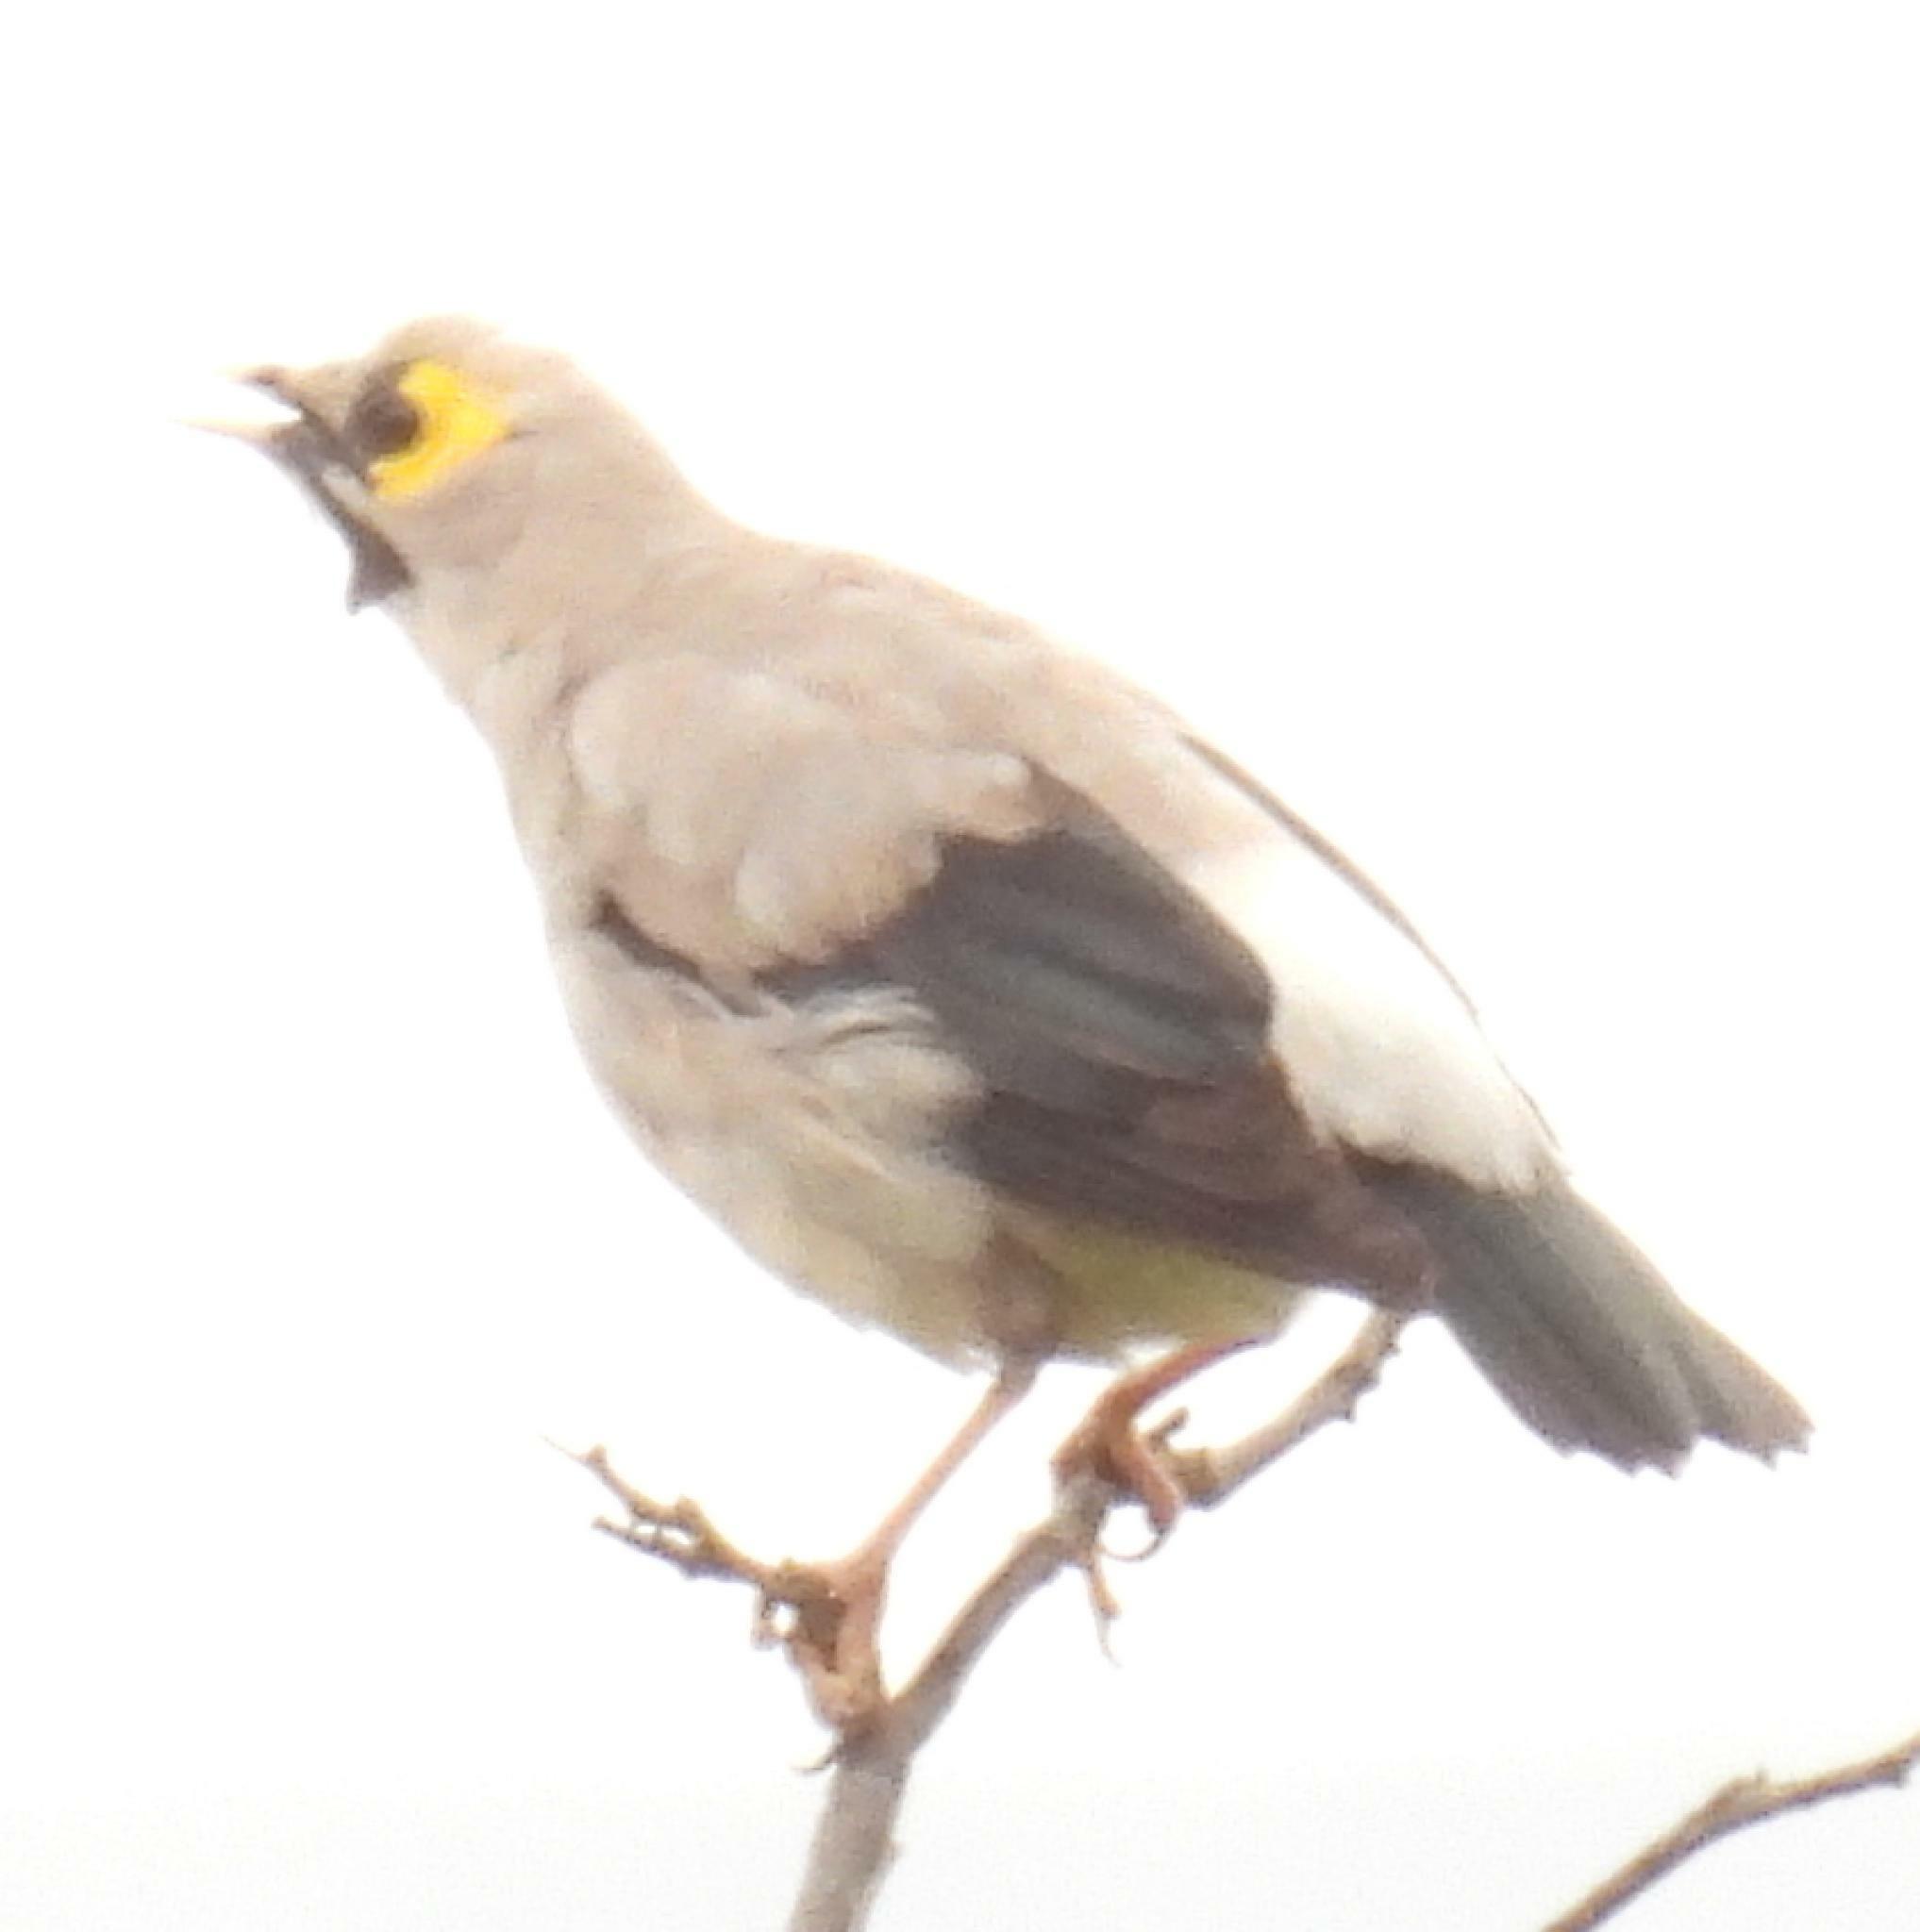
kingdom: Animalia
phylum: Chordata
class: Aves
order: Passeriformes
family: Sturnidae
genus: Creatophora
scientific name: Creatophora cinerea
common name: Wattled starling
